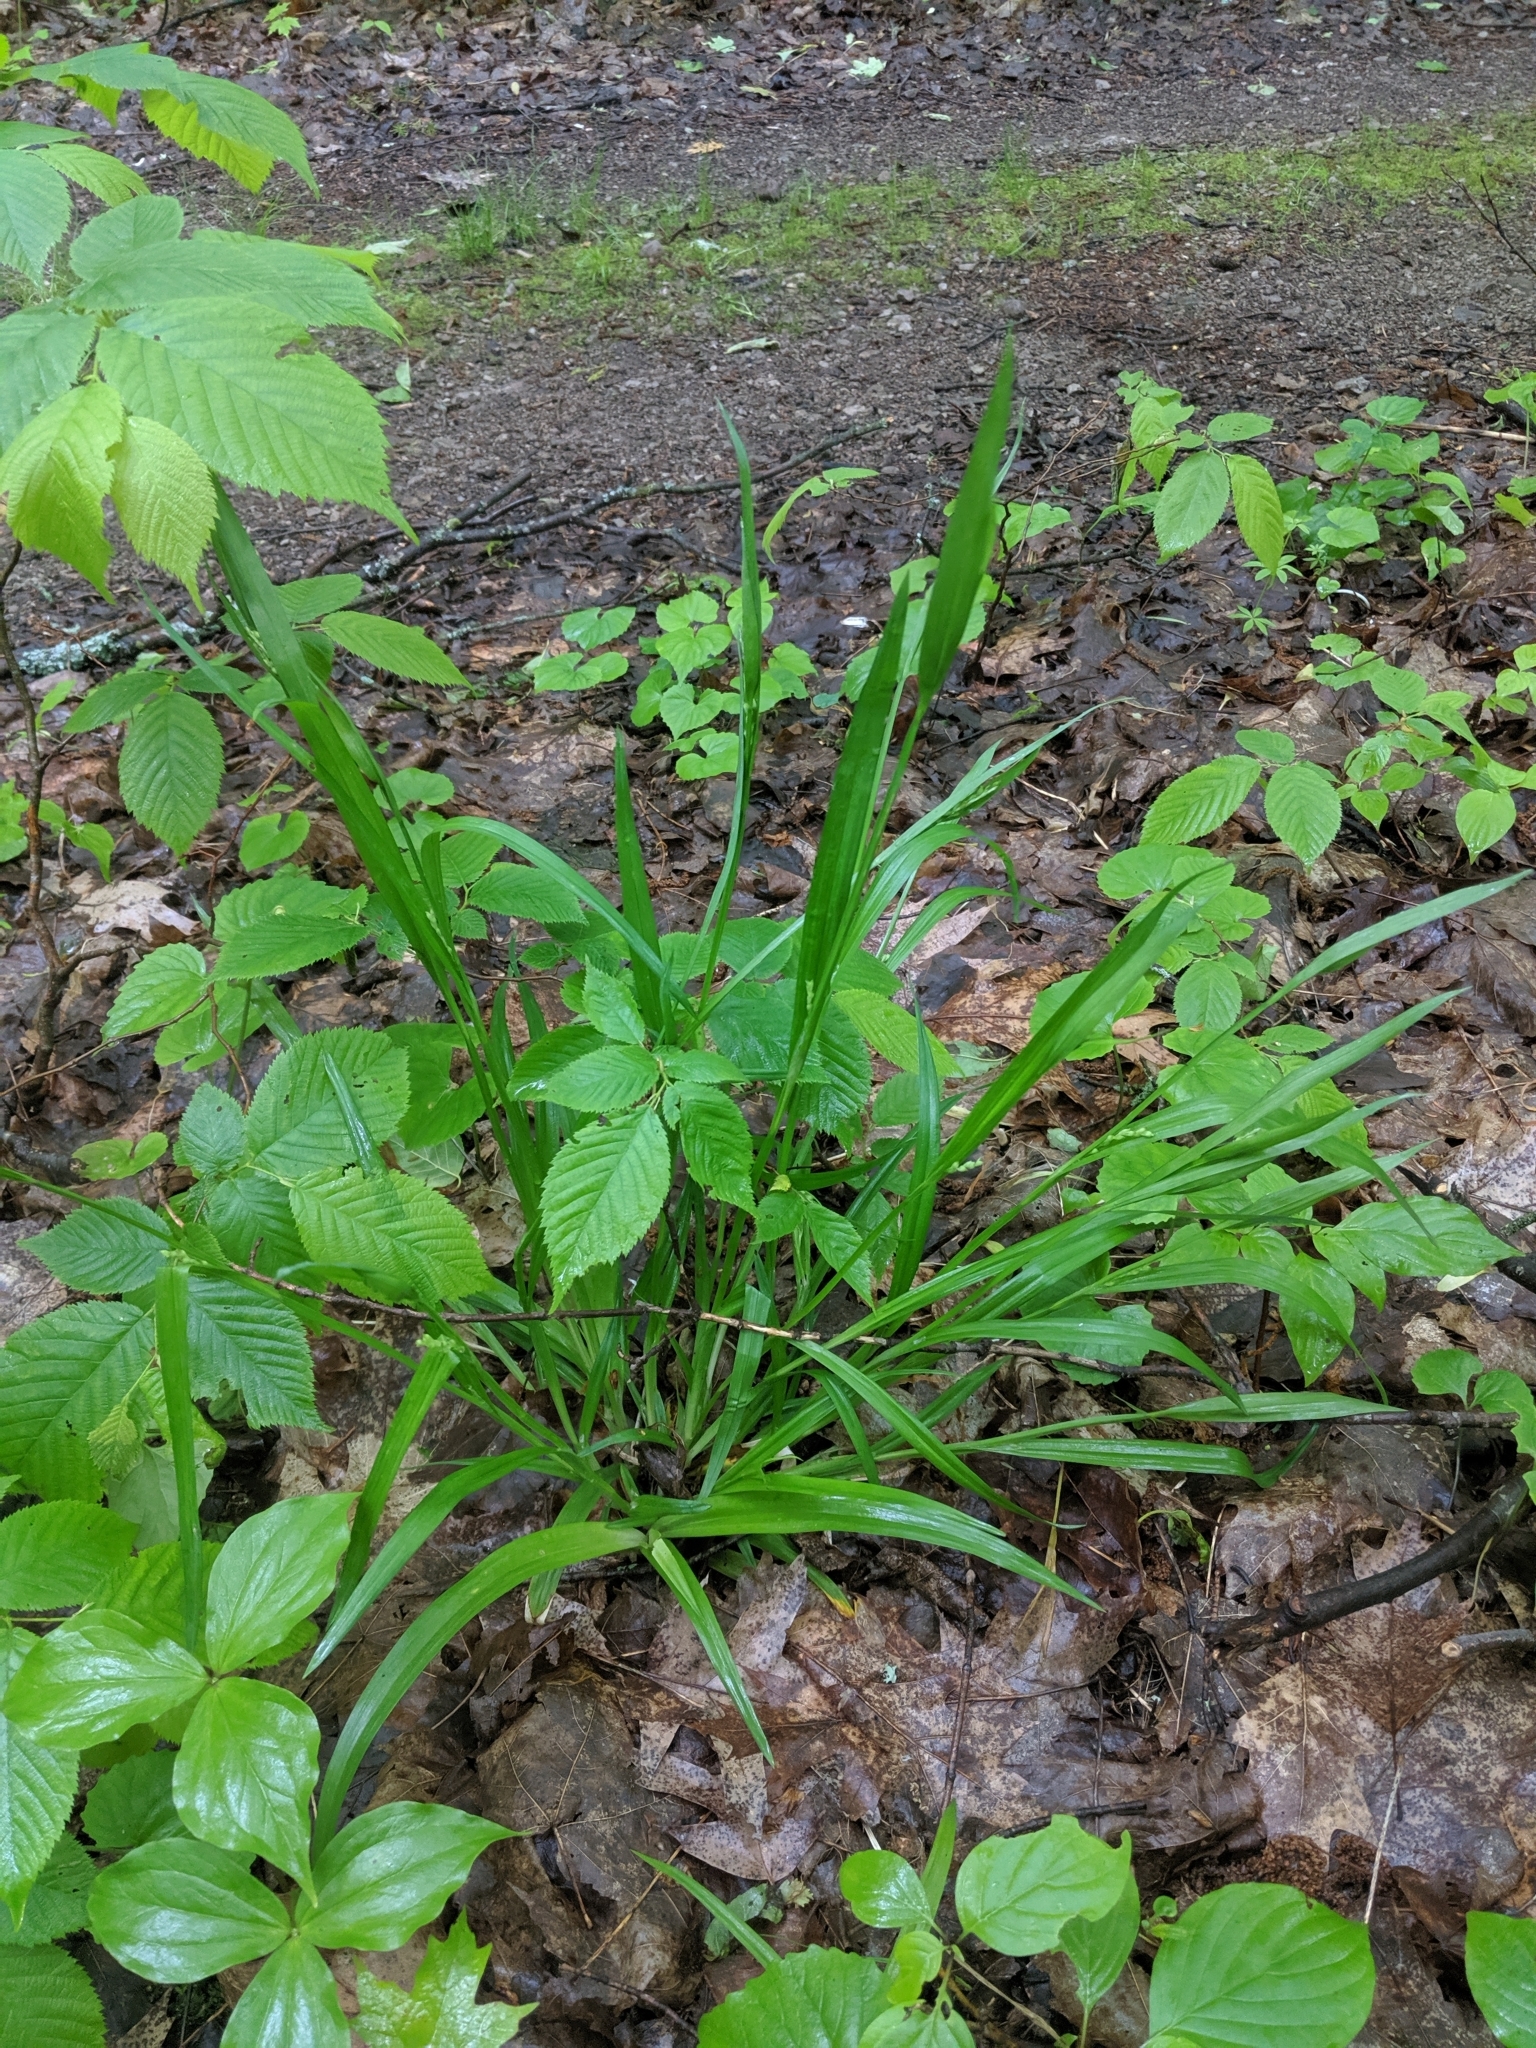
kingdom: Plantae
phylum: Tracheophyta
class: Liliopsida
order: Poales
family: Cyperaceae
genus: Carex
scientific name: Carex albursina
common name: Blunt-scale wood sedge
